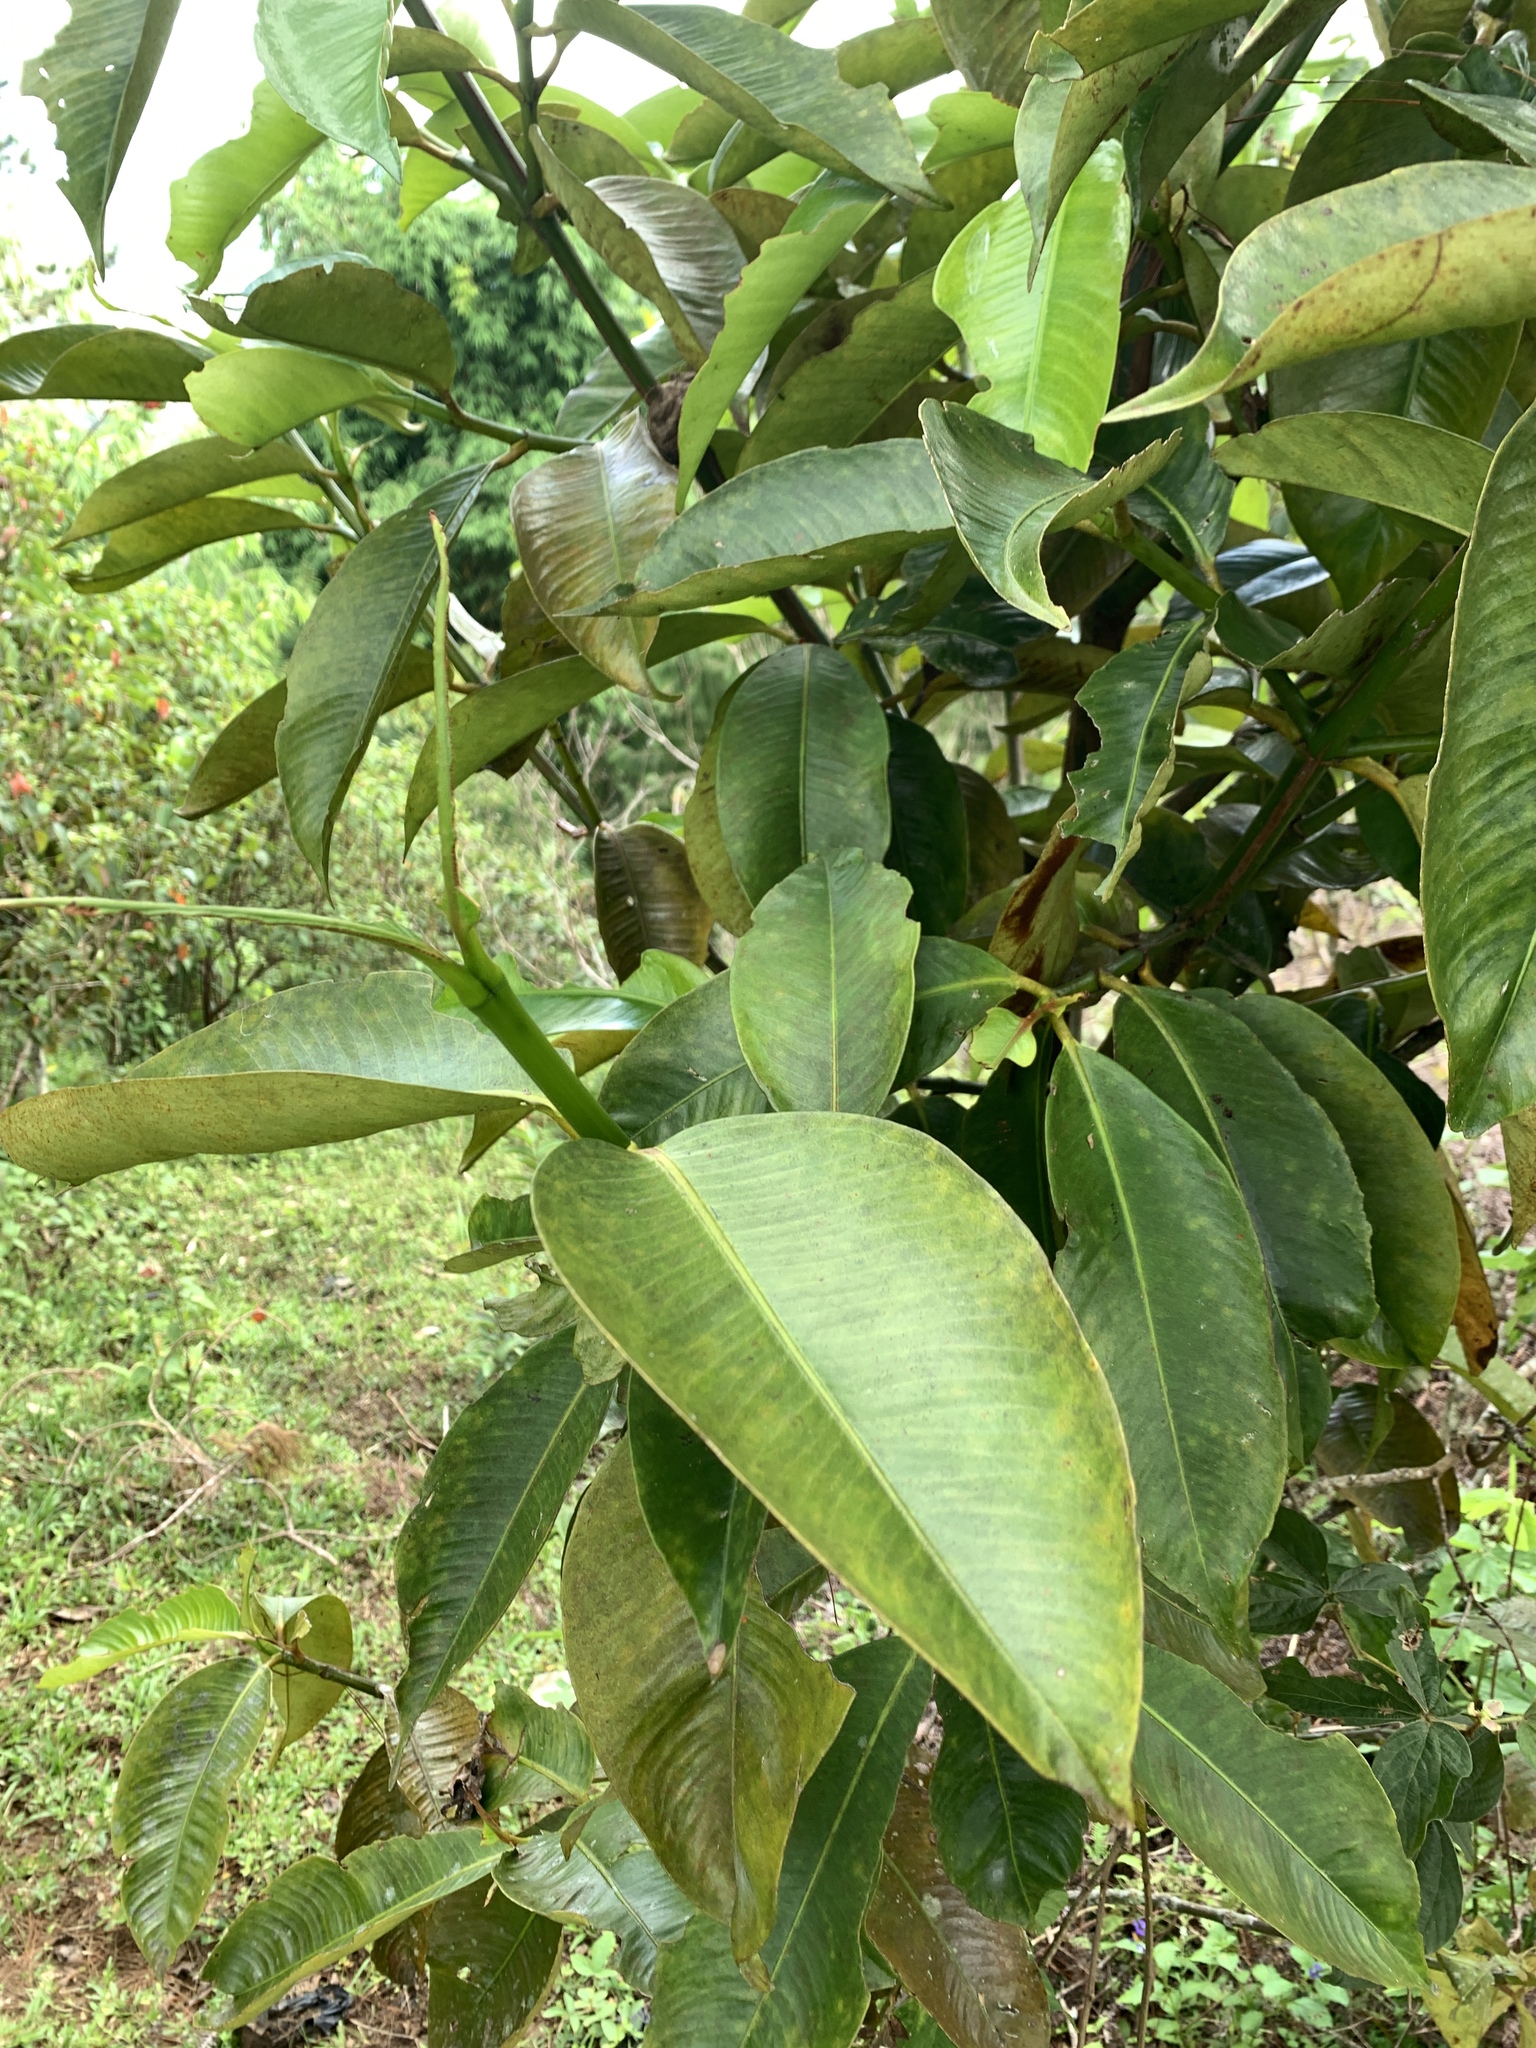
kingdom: Plantae
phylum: Tracheophyta
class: Magnoliopsida
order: Malpighiales
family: Clusiaceae
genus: Garcinia
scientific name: Garcinia mangostana
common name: Mangosteen
